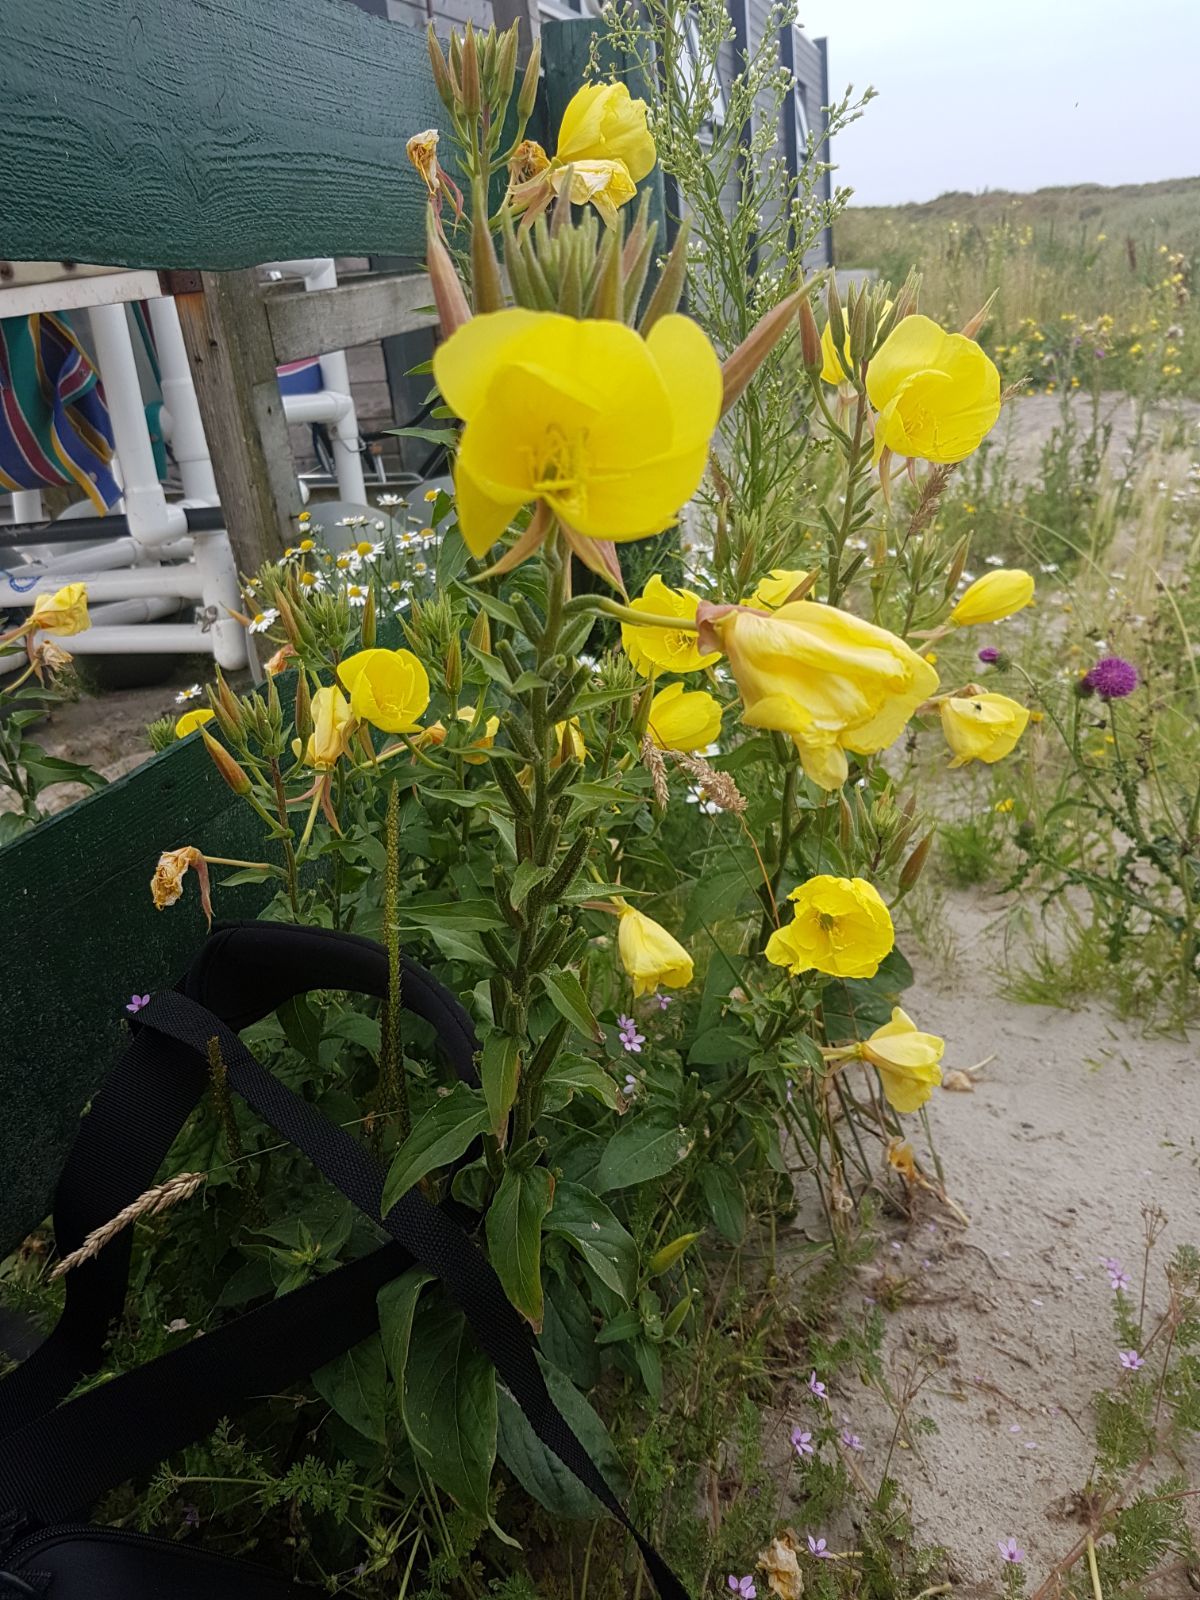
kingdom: Plantae
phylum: Tracheophyta
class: Magnoliopsida
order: Myrtales
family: Onagraceae
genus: Oenothera
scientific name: Oenothera glazioviana
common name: Large-flowered evening-primrose
